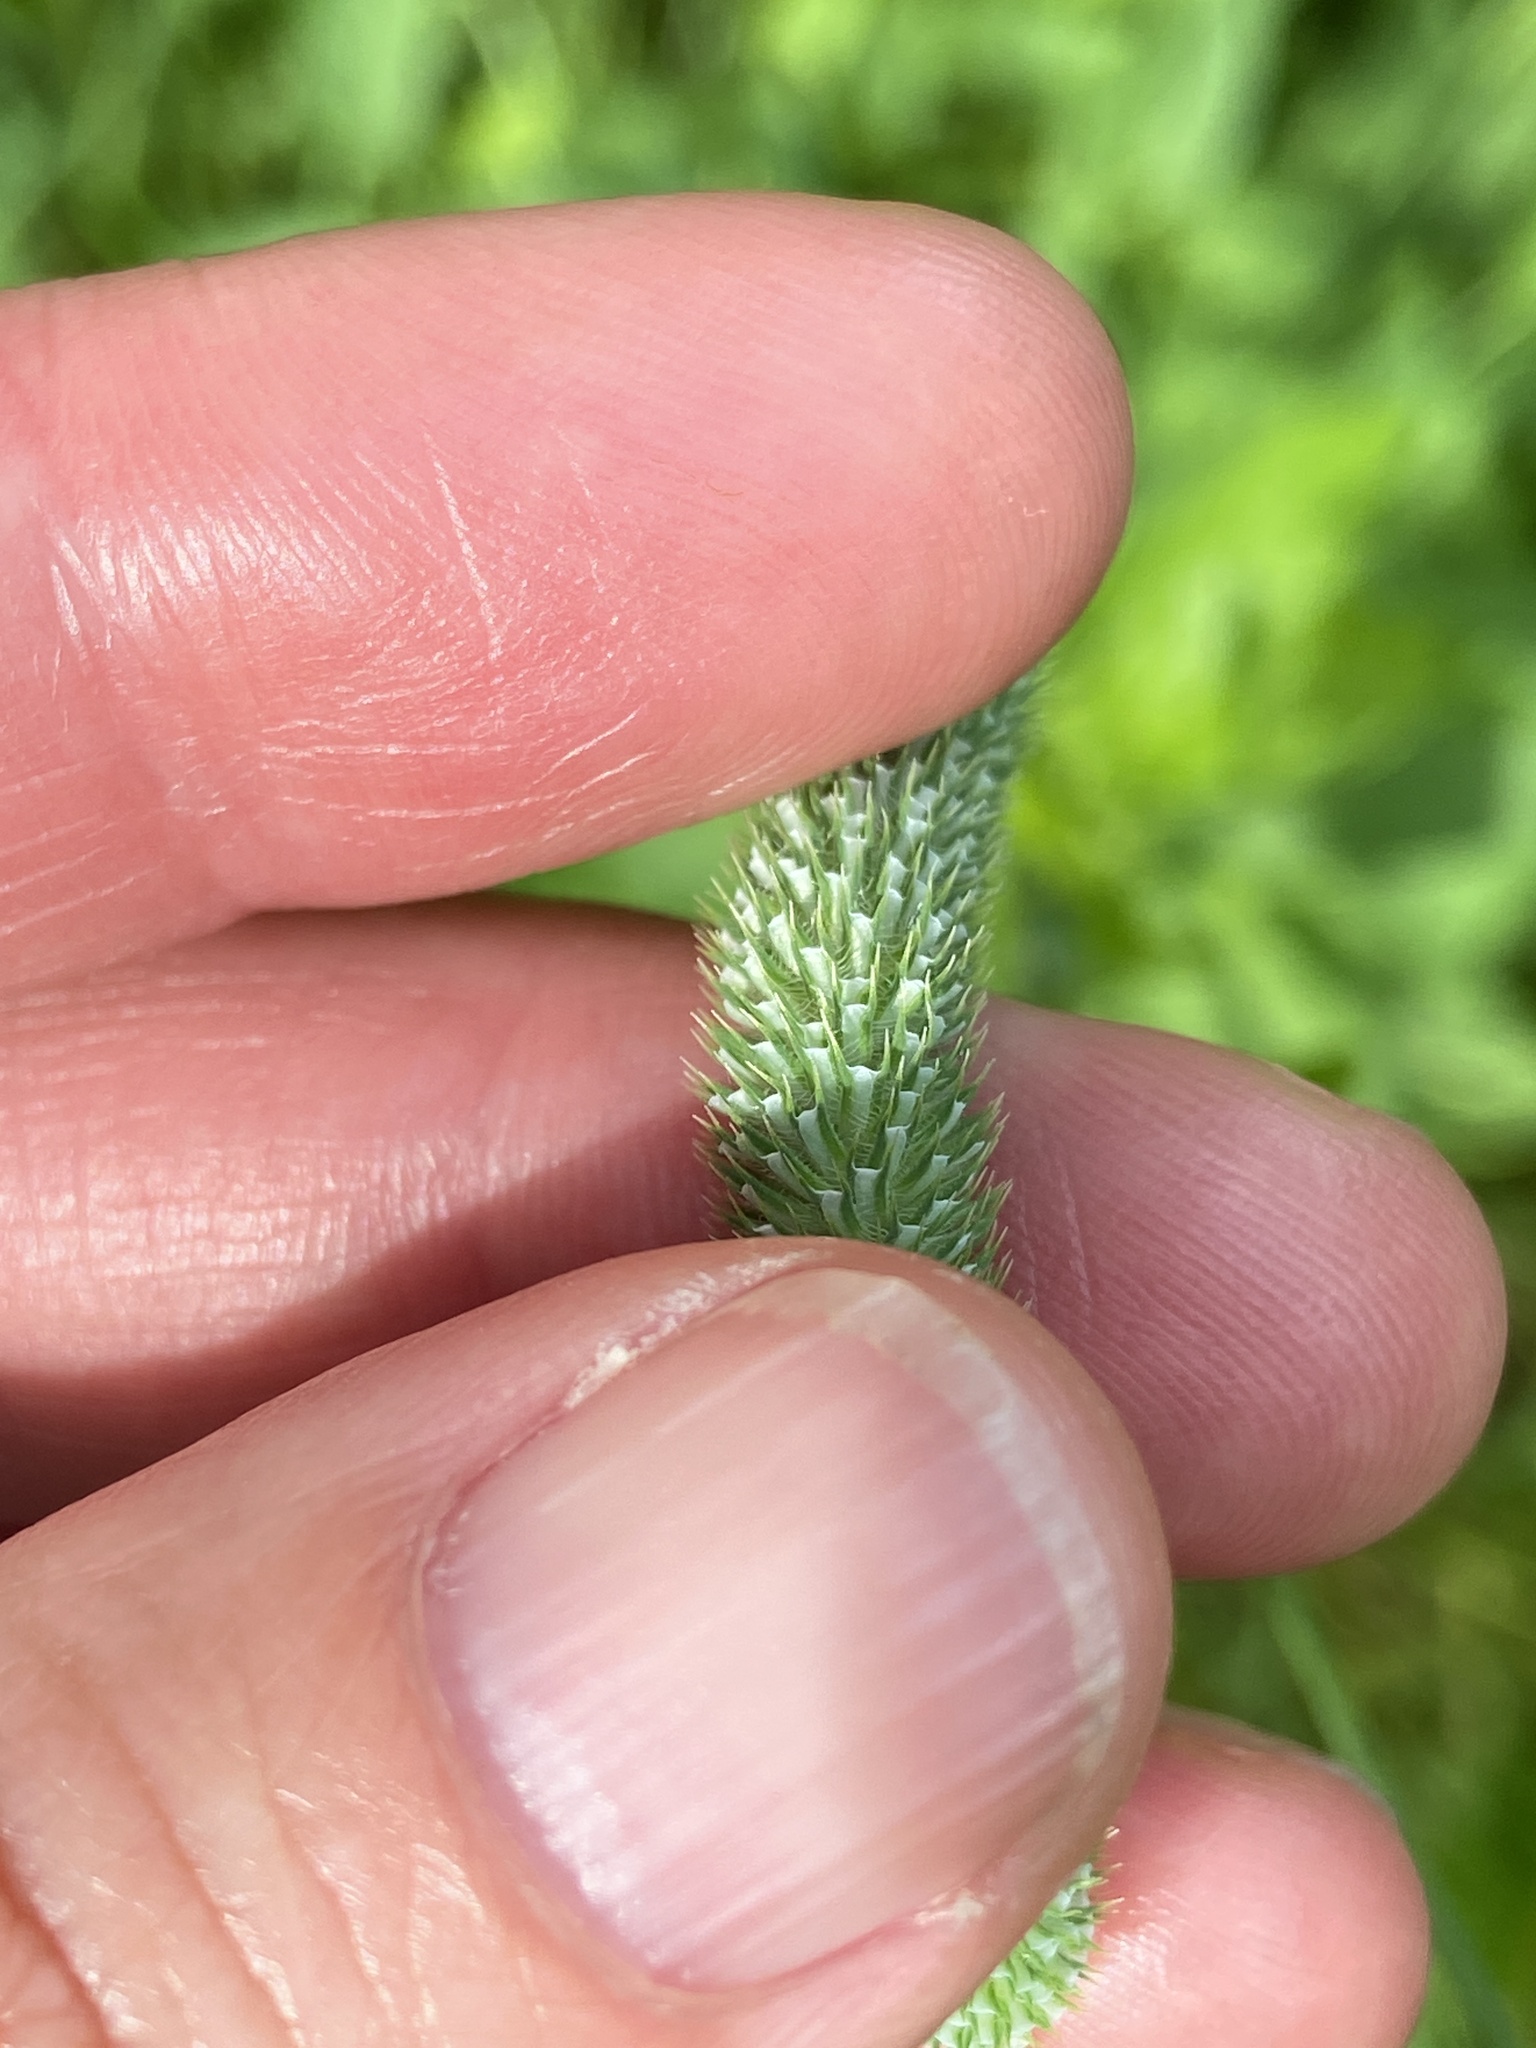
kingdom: Plantae
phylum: Tracheophyta
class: Liliopsida
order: Poales
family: Poaceae
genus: Phleum
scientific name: Phleum bertolonii
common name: Smaller cat's-tail
